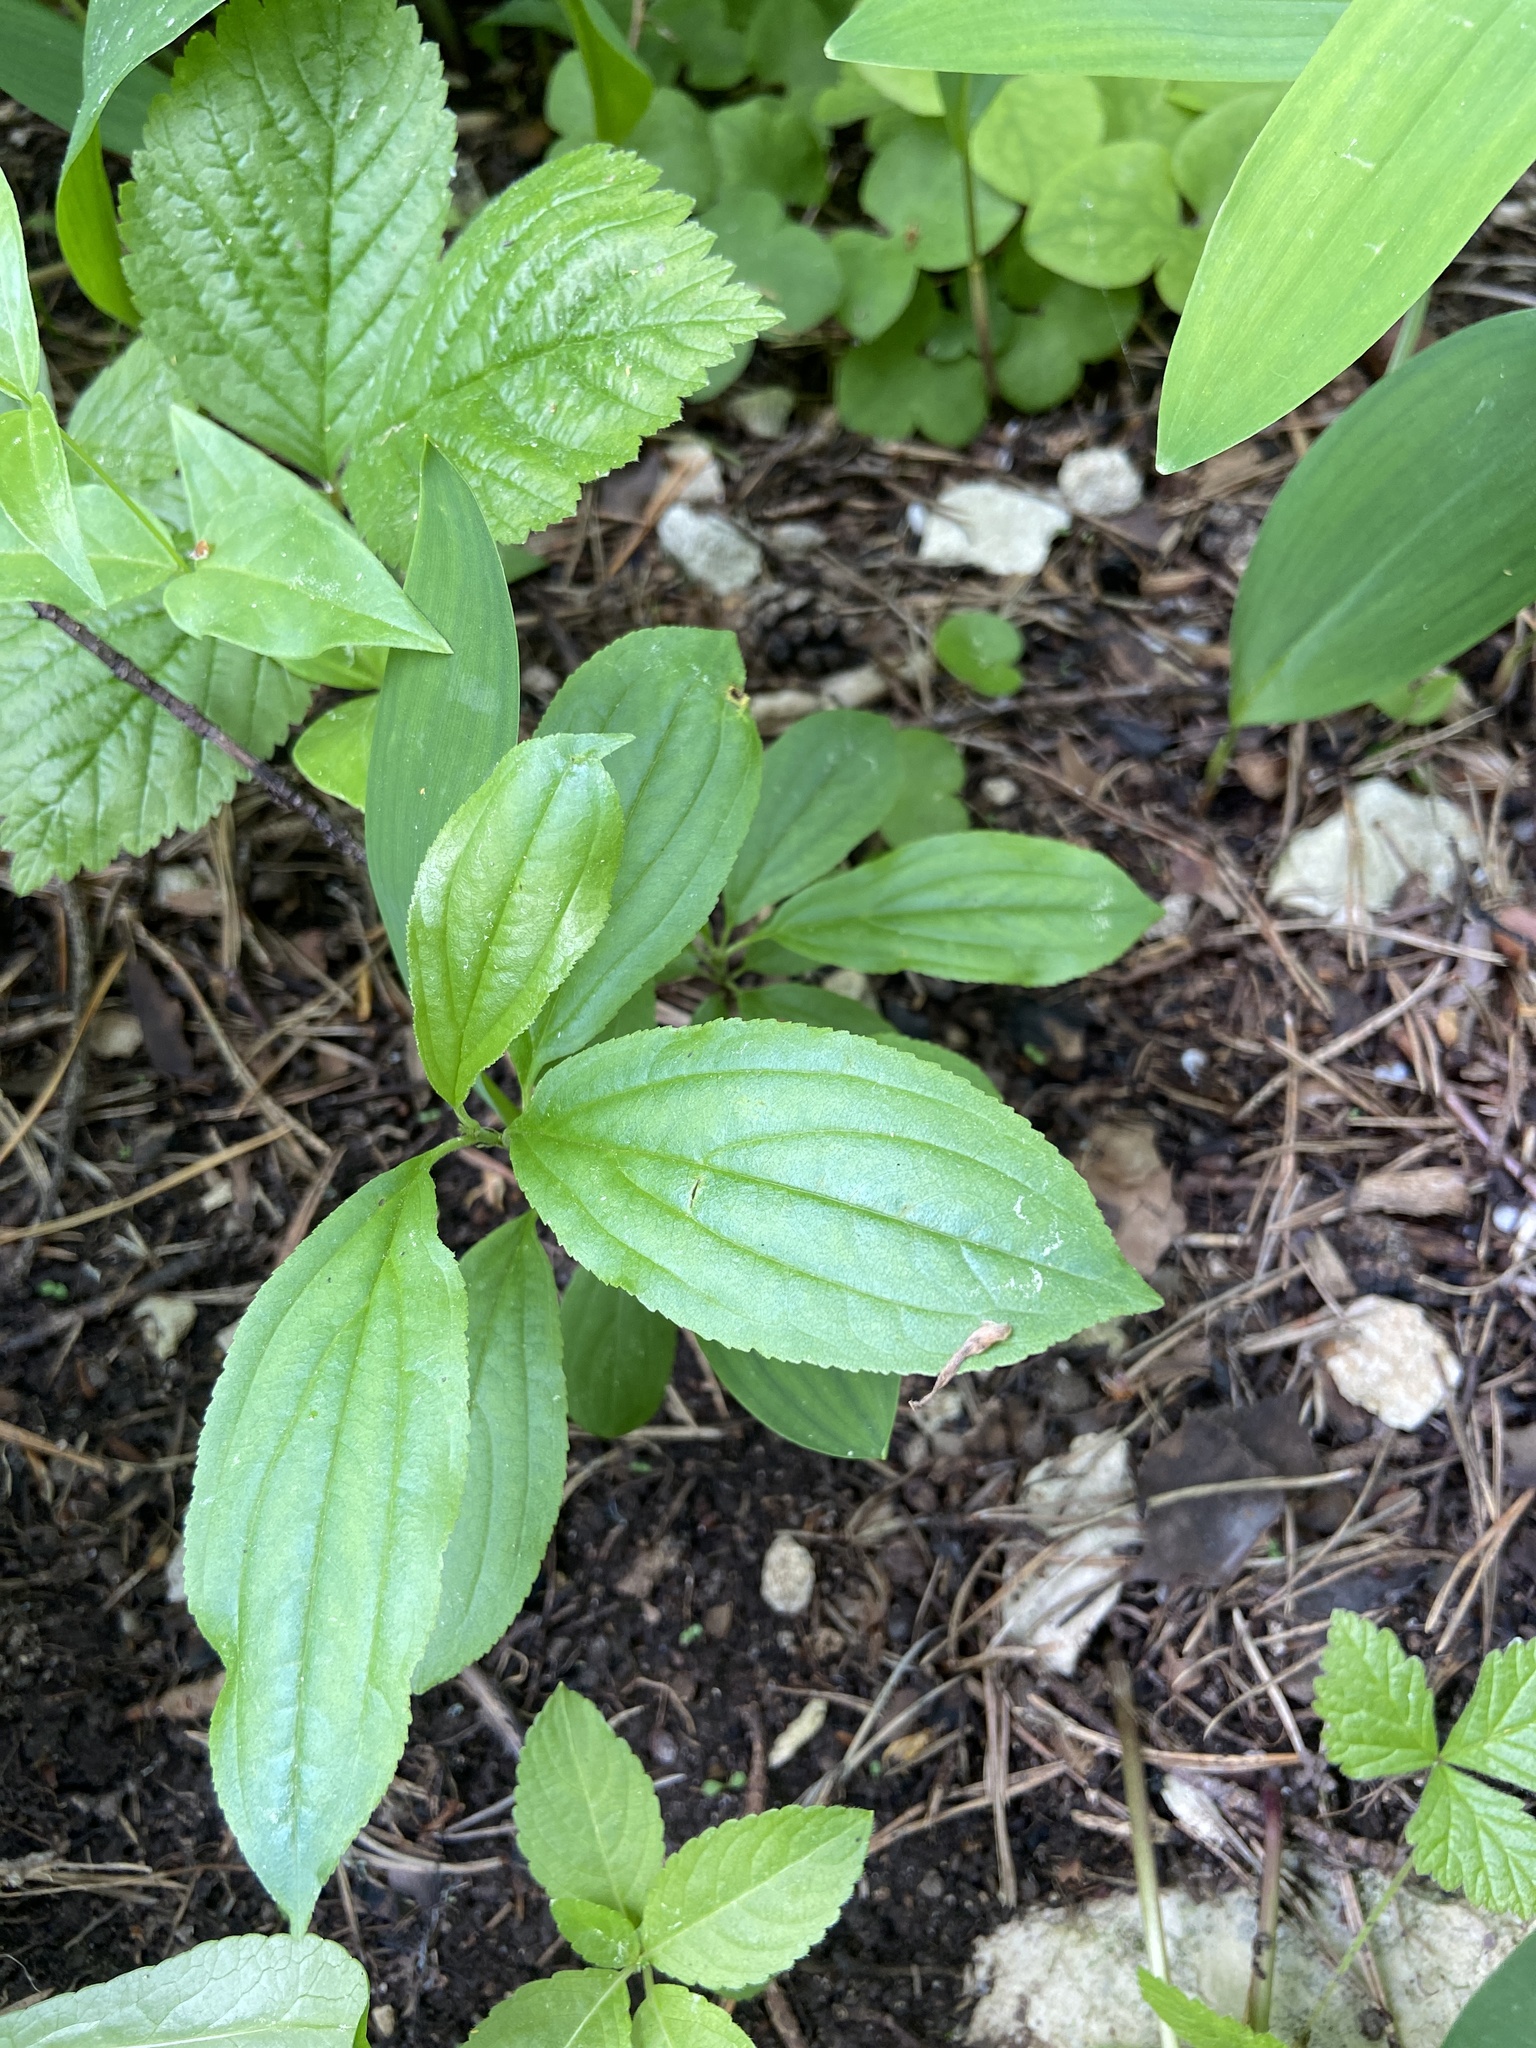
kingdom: Plantae
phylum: Tracheophyta
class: Magnoliopsida
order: Rosales
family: Rhamnaceae
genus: Rhamnus
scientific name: Rhamnus cathartica
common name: Common buckthorn
